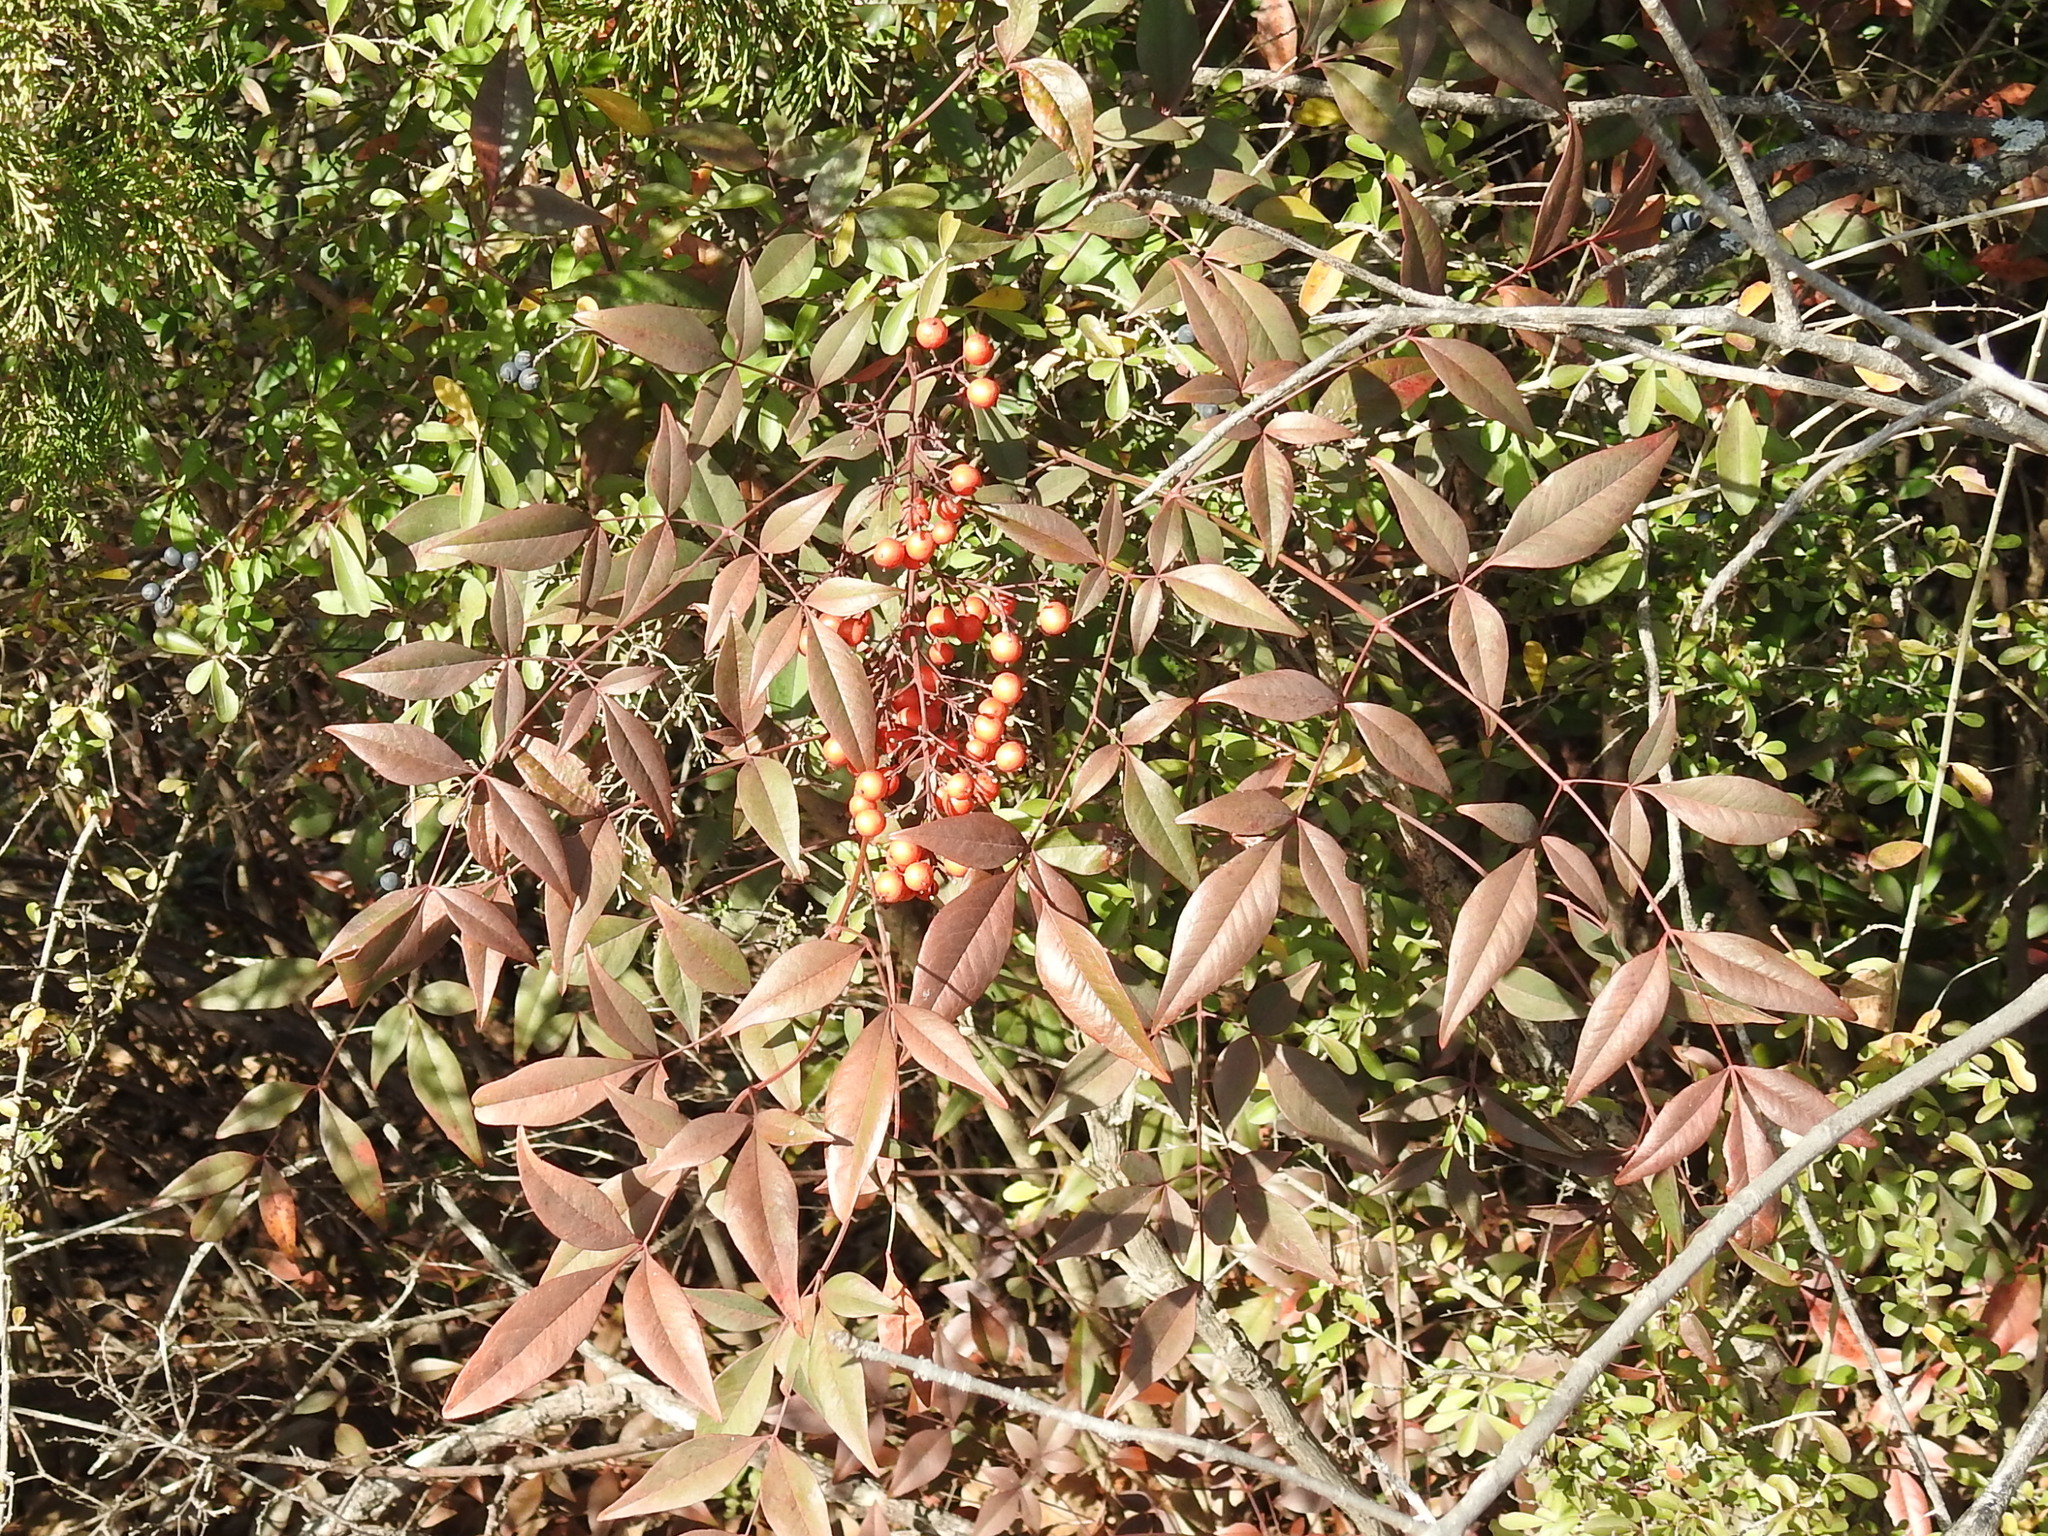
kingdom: Plantae
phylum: Tracheophyta
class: Magnoliopsida
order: Ranunculales
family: Berberidaceae
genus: Nandina
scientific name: Nandina domestica
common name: Sacred bamboo
